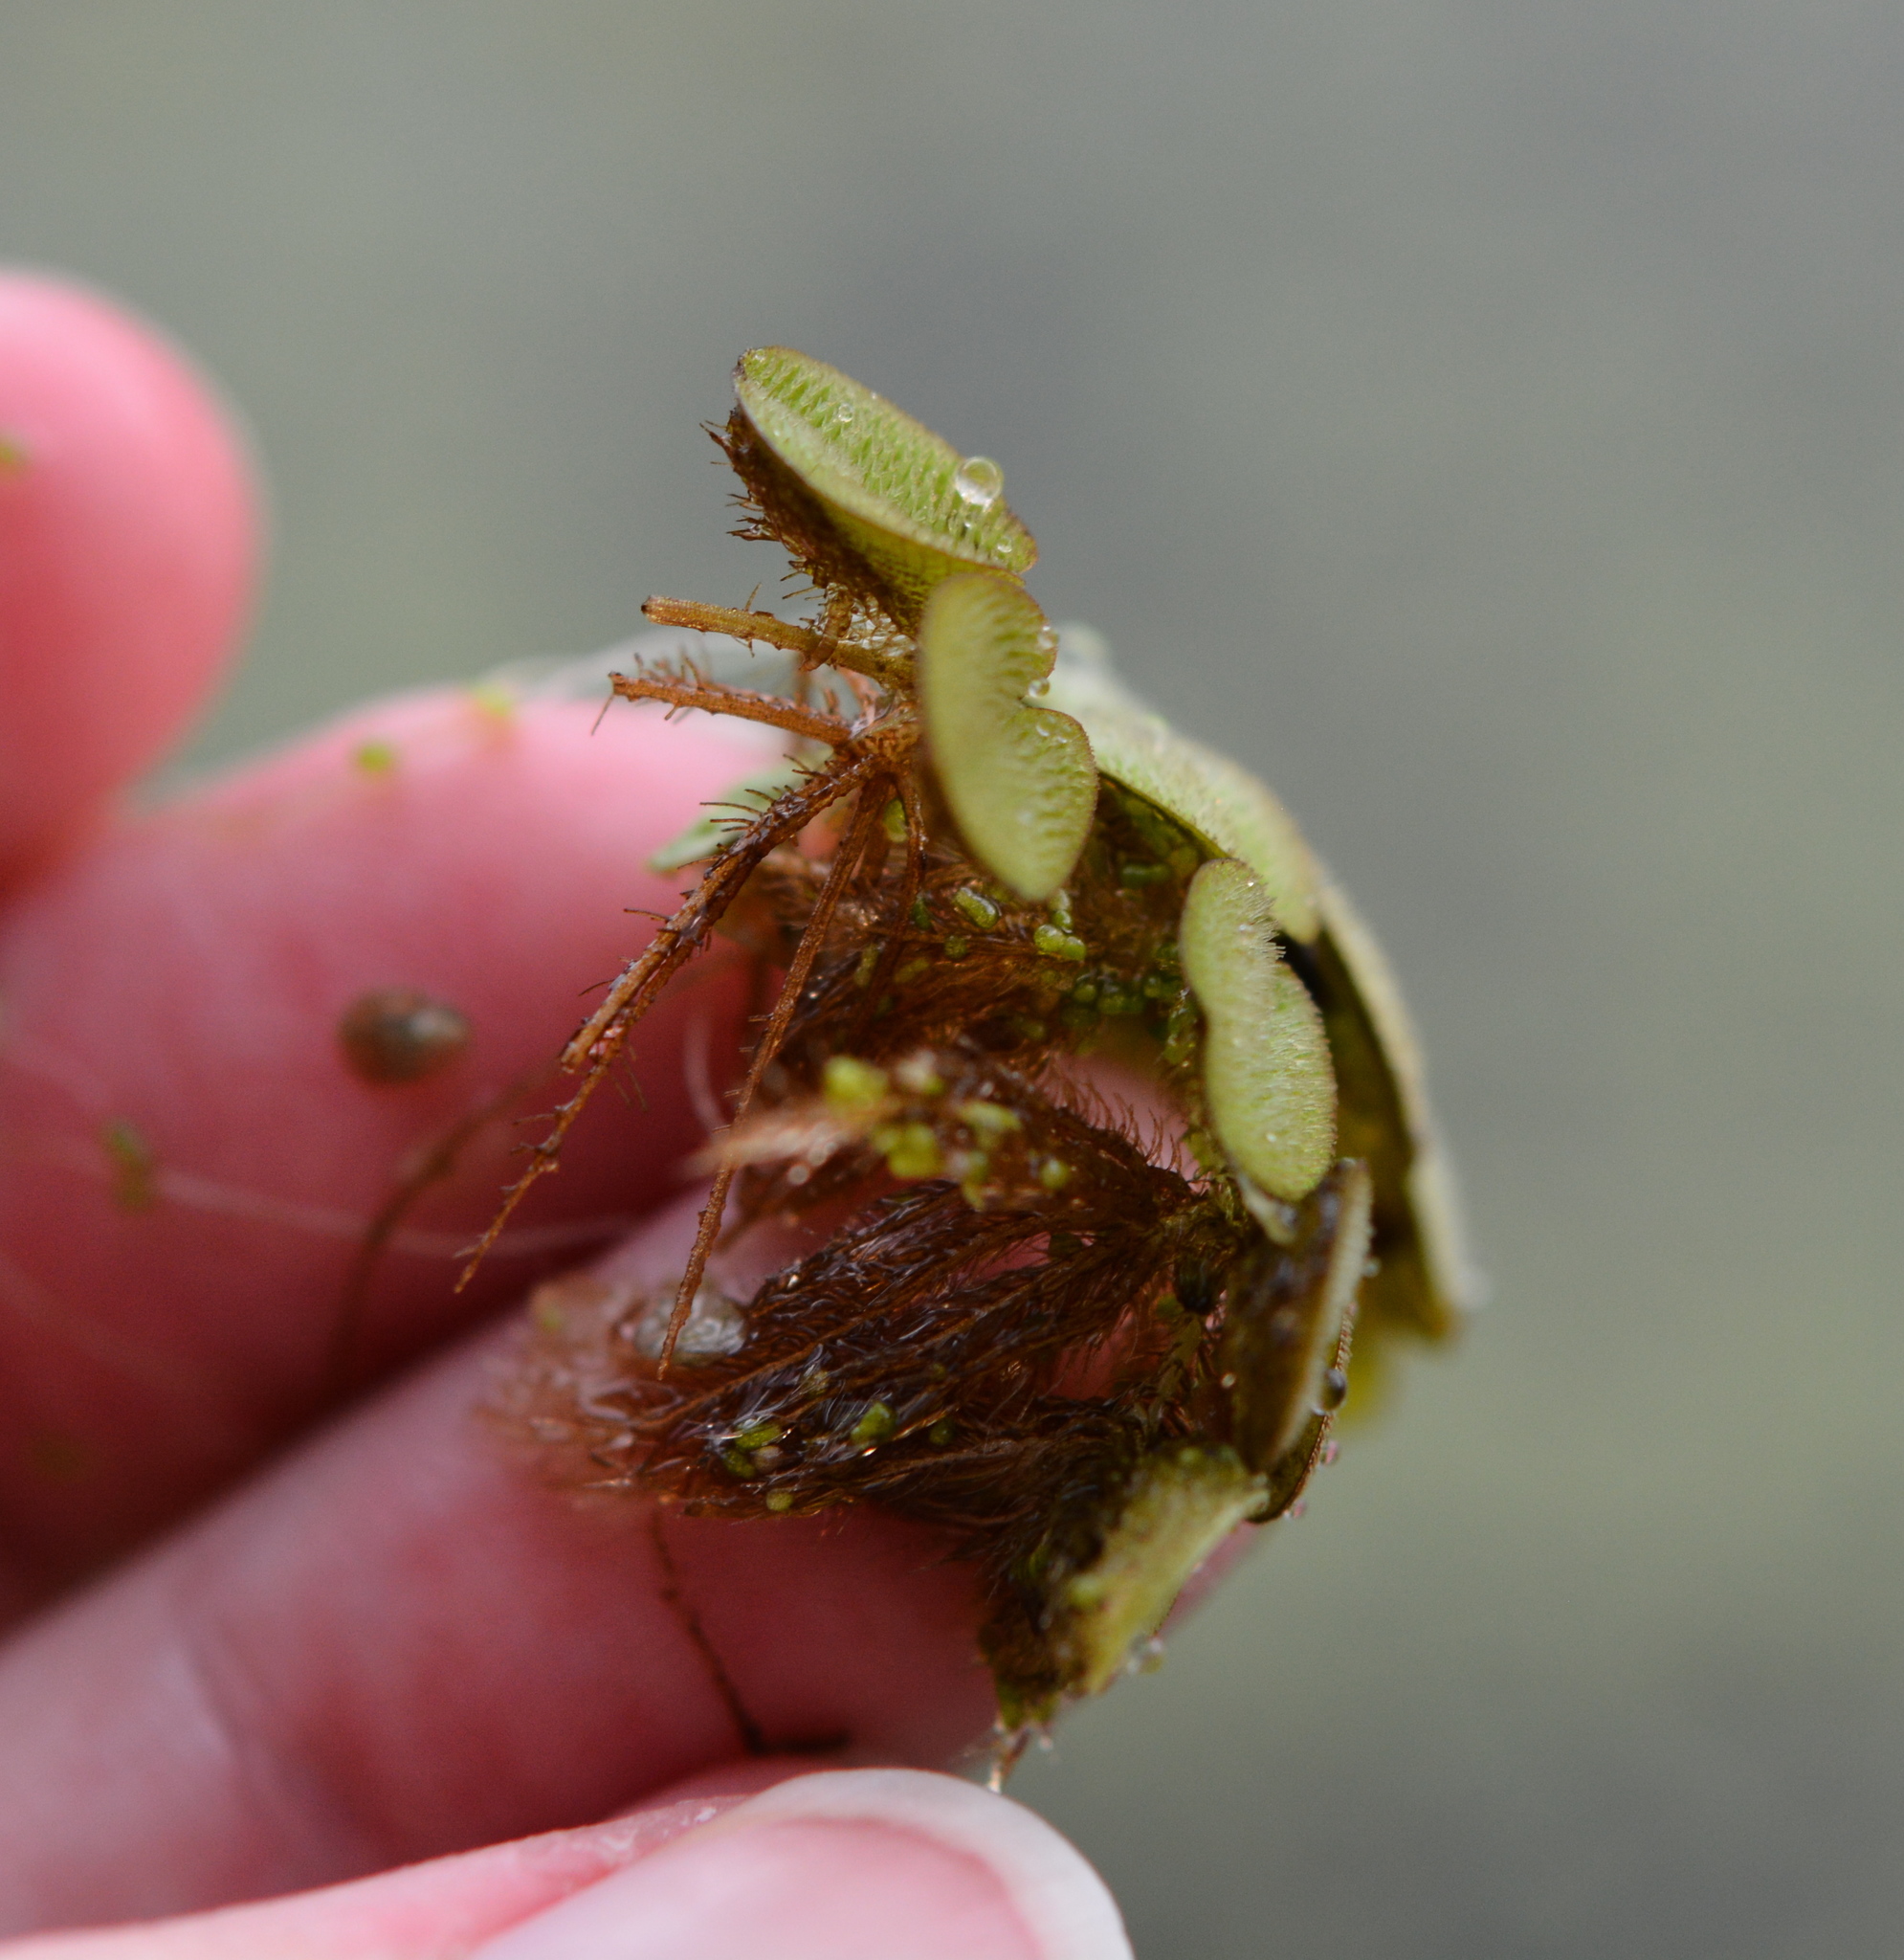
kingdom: Plantae
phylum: Tracheophyta
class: Polypodiopsida
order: Salviniales
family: Salviniaceae
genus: Salvinia
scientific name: Salvinia minima
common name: Water spangles
